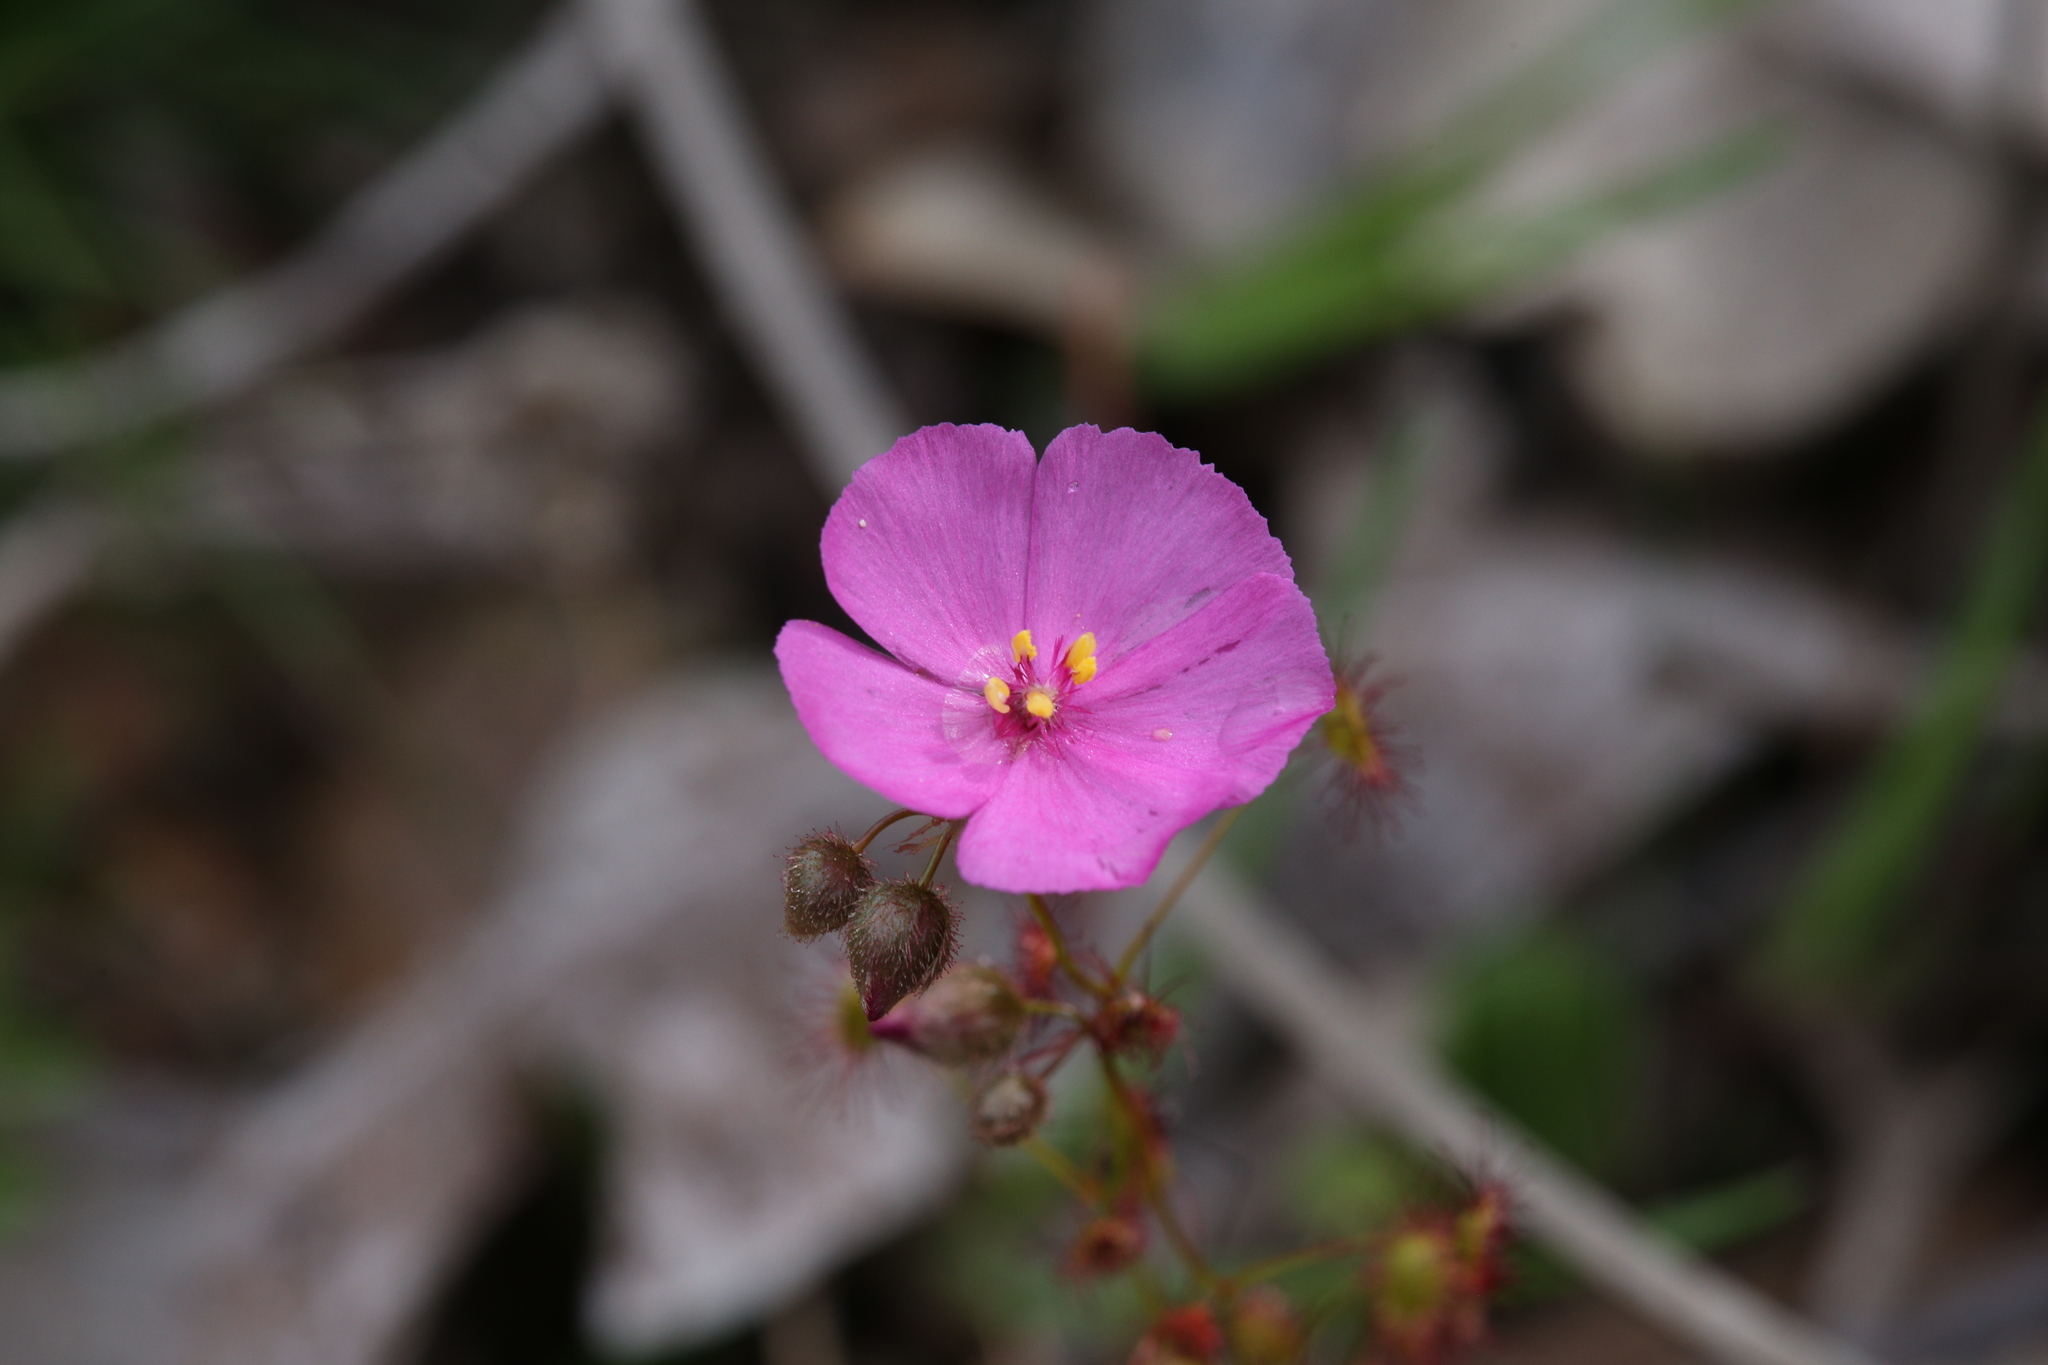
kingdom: Plantae
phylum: Tracheophyta
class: Magnoliopsida
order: Caryophyllales
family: Droseraceae
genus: Drosera
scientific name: Drosera menziesii
